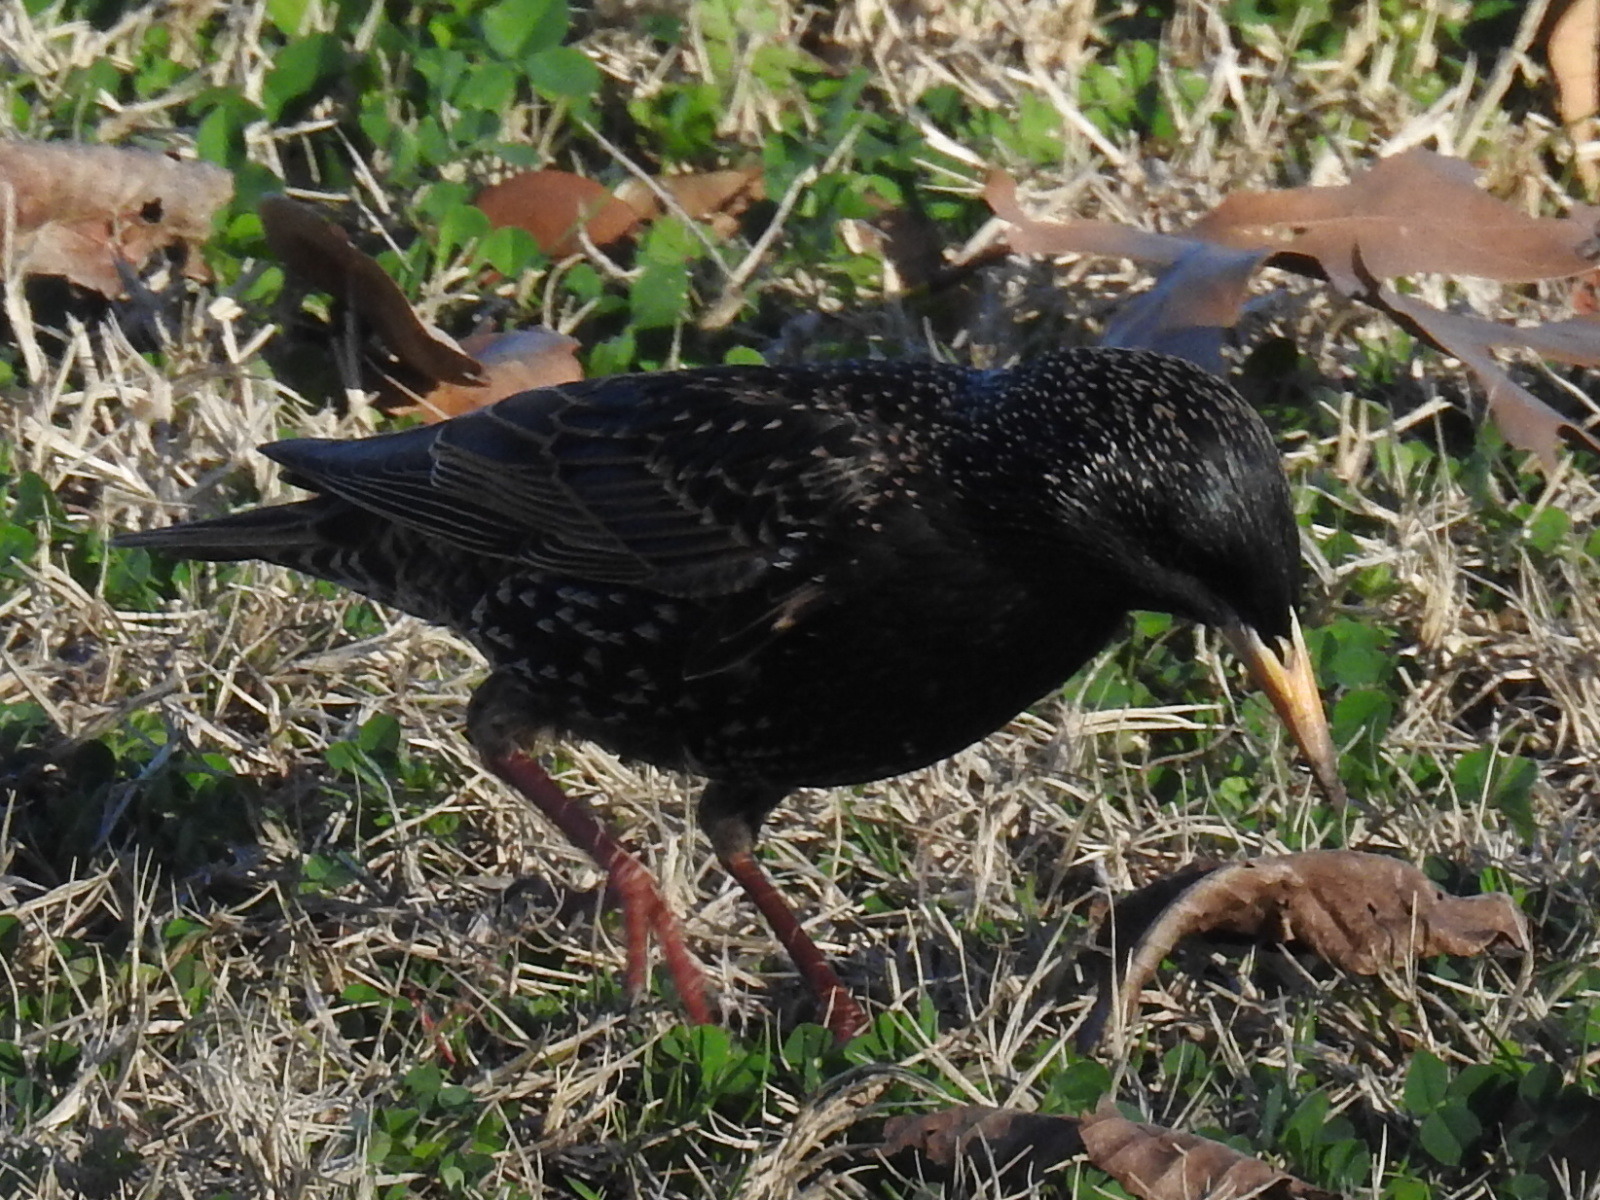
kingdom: Animalia
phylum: Chordata
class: Aves
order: Passeriformes
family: Sturnidae
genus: Sturnus
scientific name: Sturnus vulgaris
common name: Common starling
